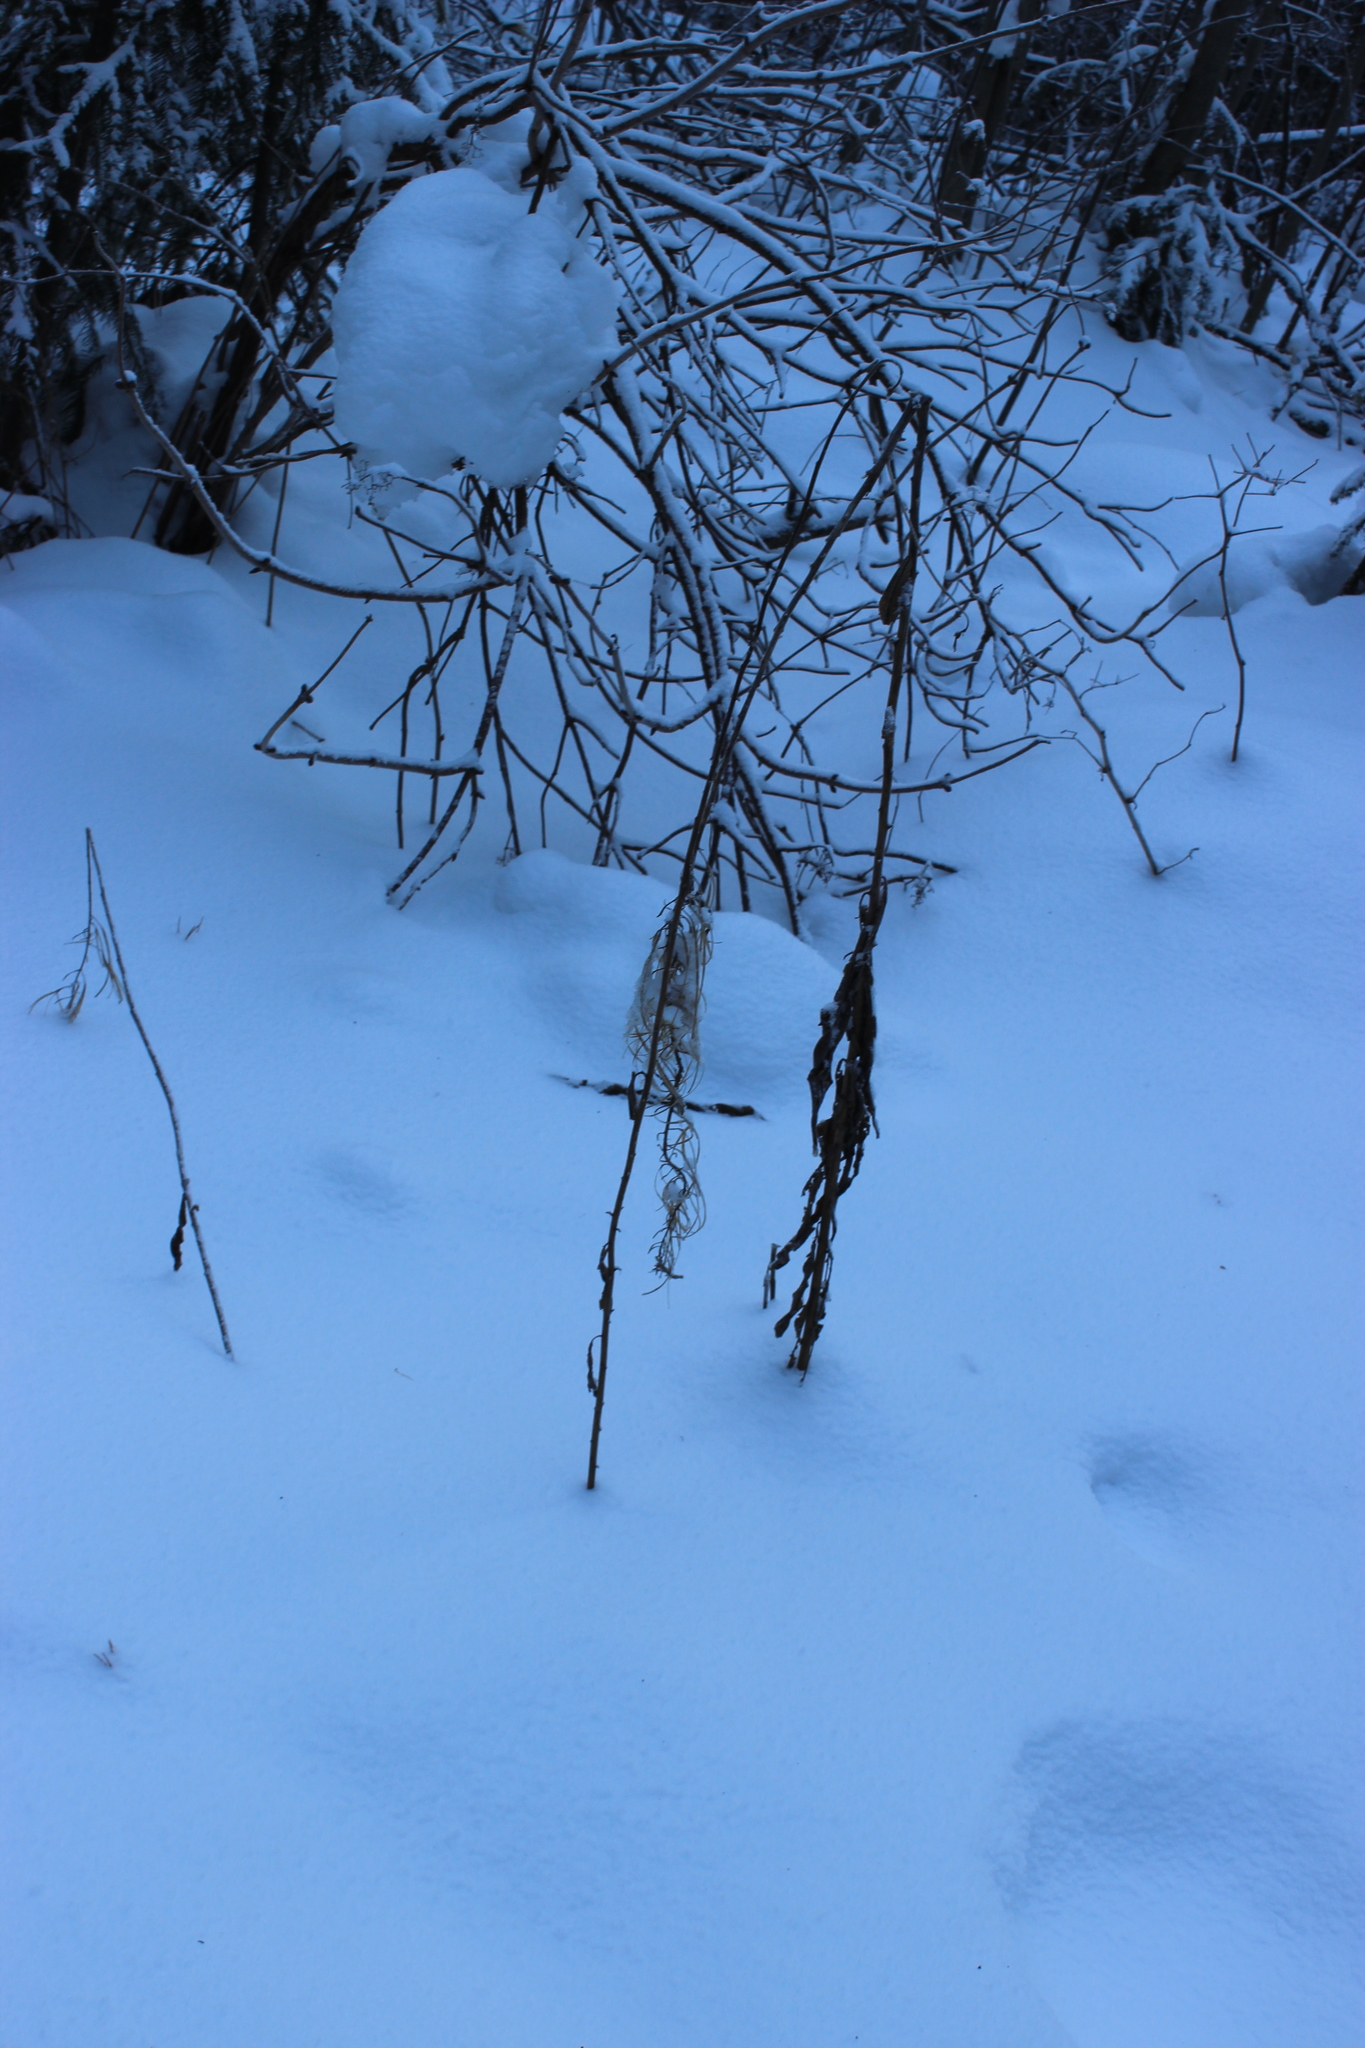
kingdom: Plantae
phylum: Tracheophyta
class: Magnoliopsida
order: Myrtales
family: Onagraceae
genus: Chamaenerion
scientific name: Chamaenerion angustifolium
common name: Fireweed
